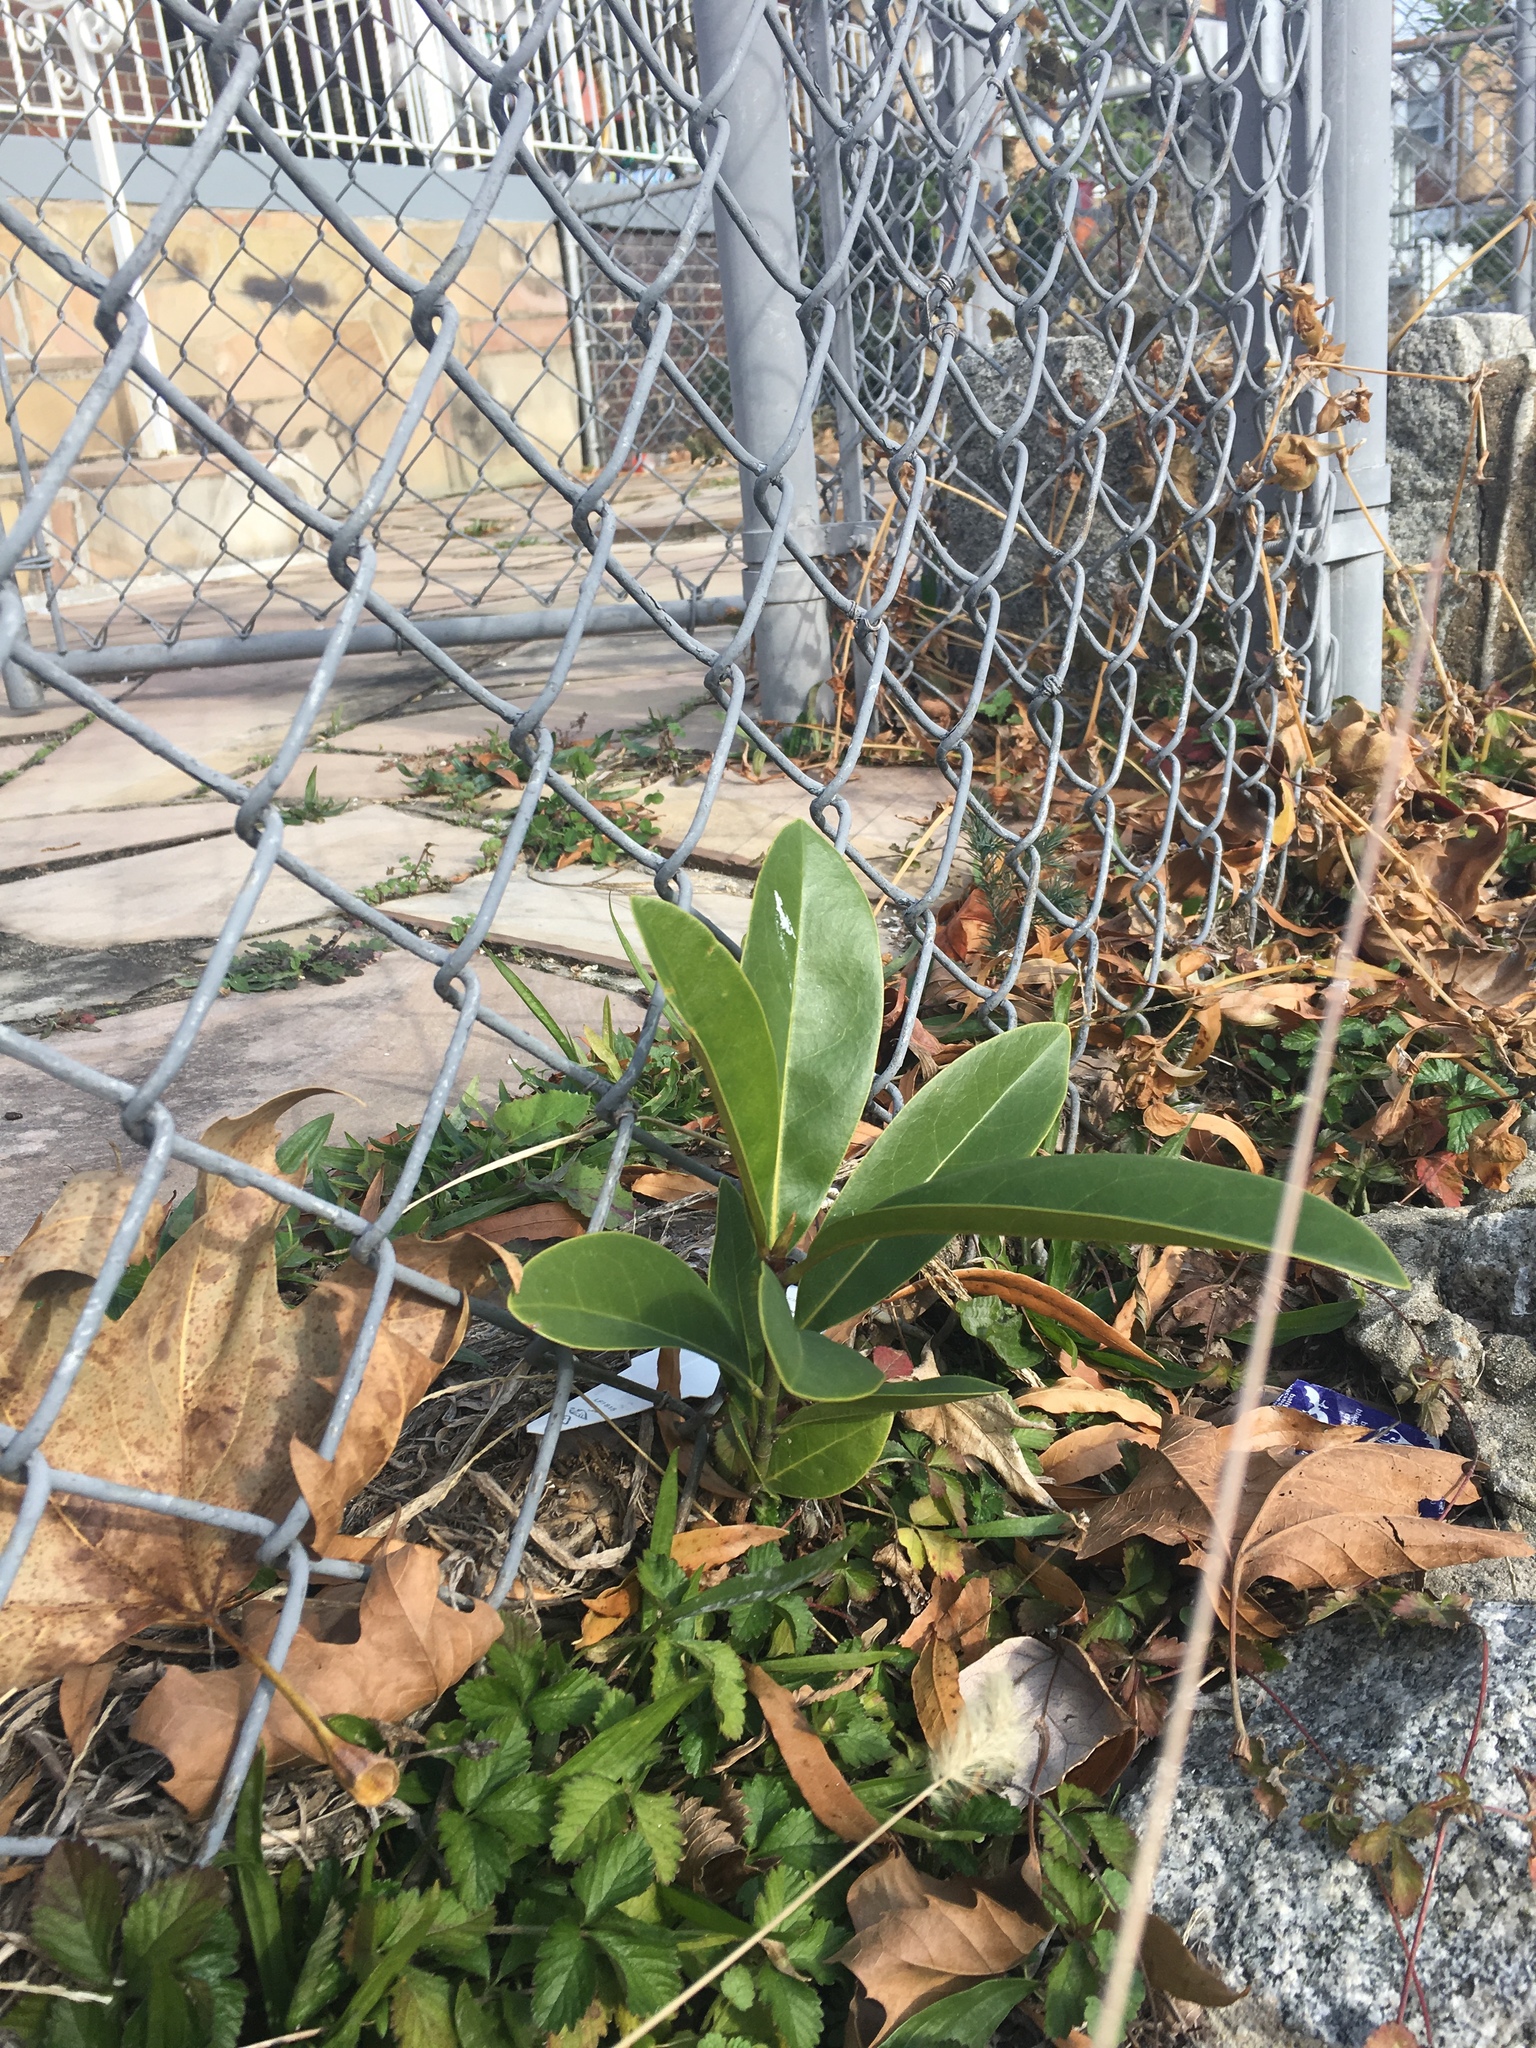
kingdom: Plantae
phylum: Tracheophyta
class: Magnoliopsida
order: Magnoliales
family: Magnoliaceae
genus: Magnolia
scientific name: Magnolia virginiana
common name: Swamp bay
